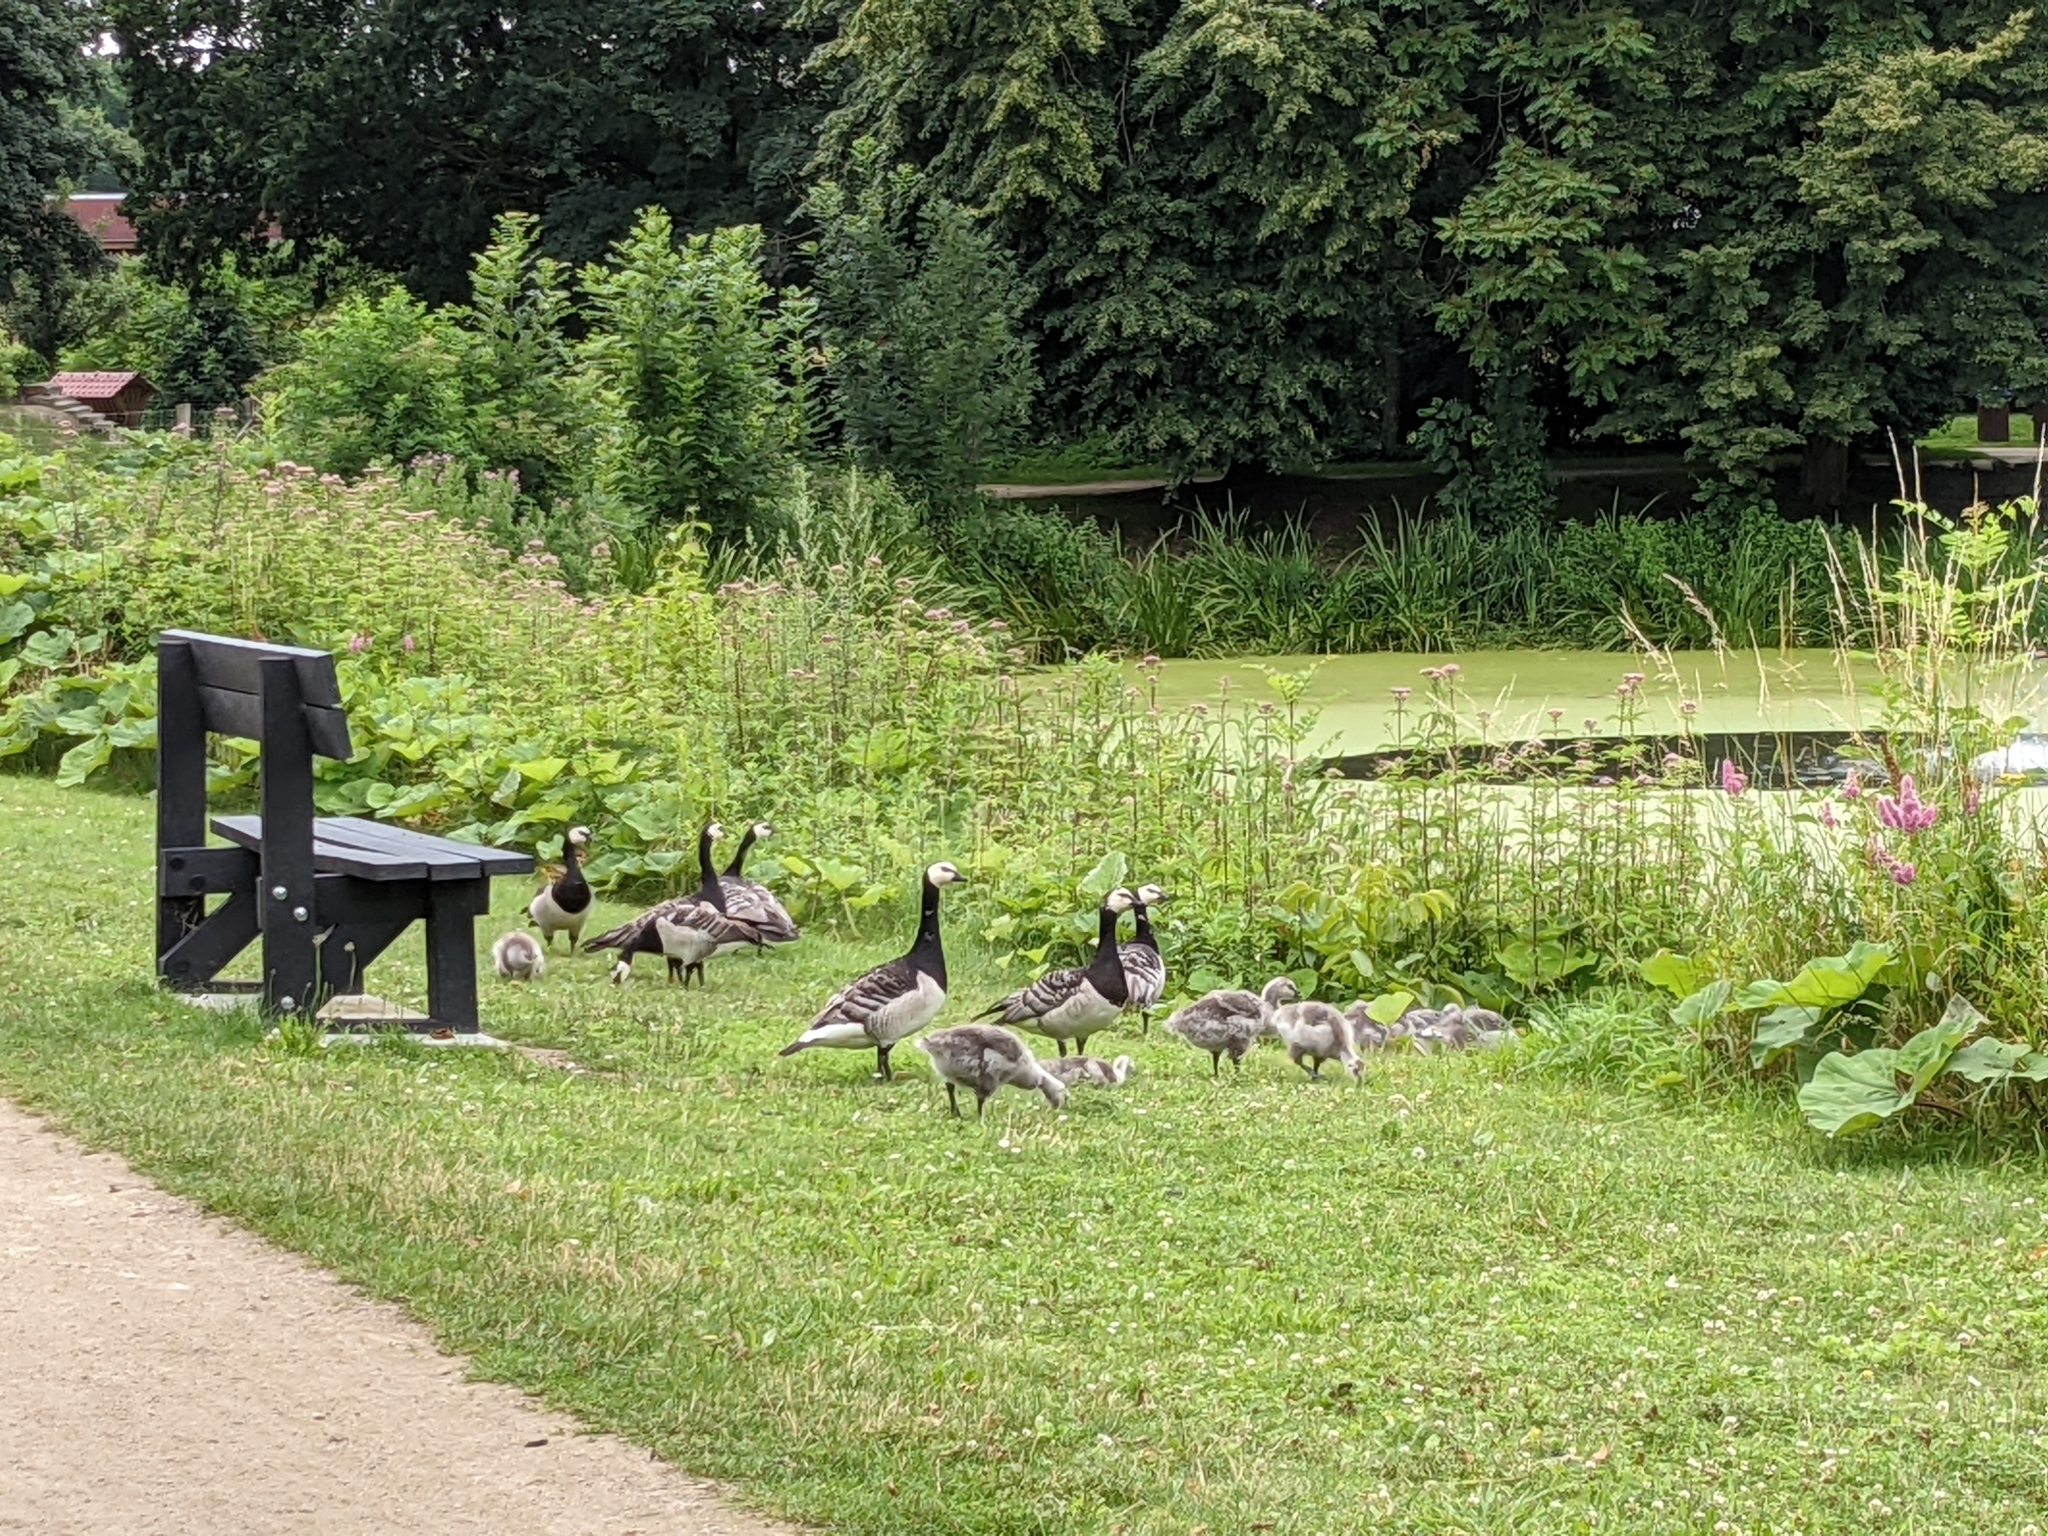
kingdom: Animalia
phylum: Chordata
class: Aves
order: Anseriformes
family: Anatidae
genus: Branta
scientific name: Branta leucopsis
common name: Barnacle goose
